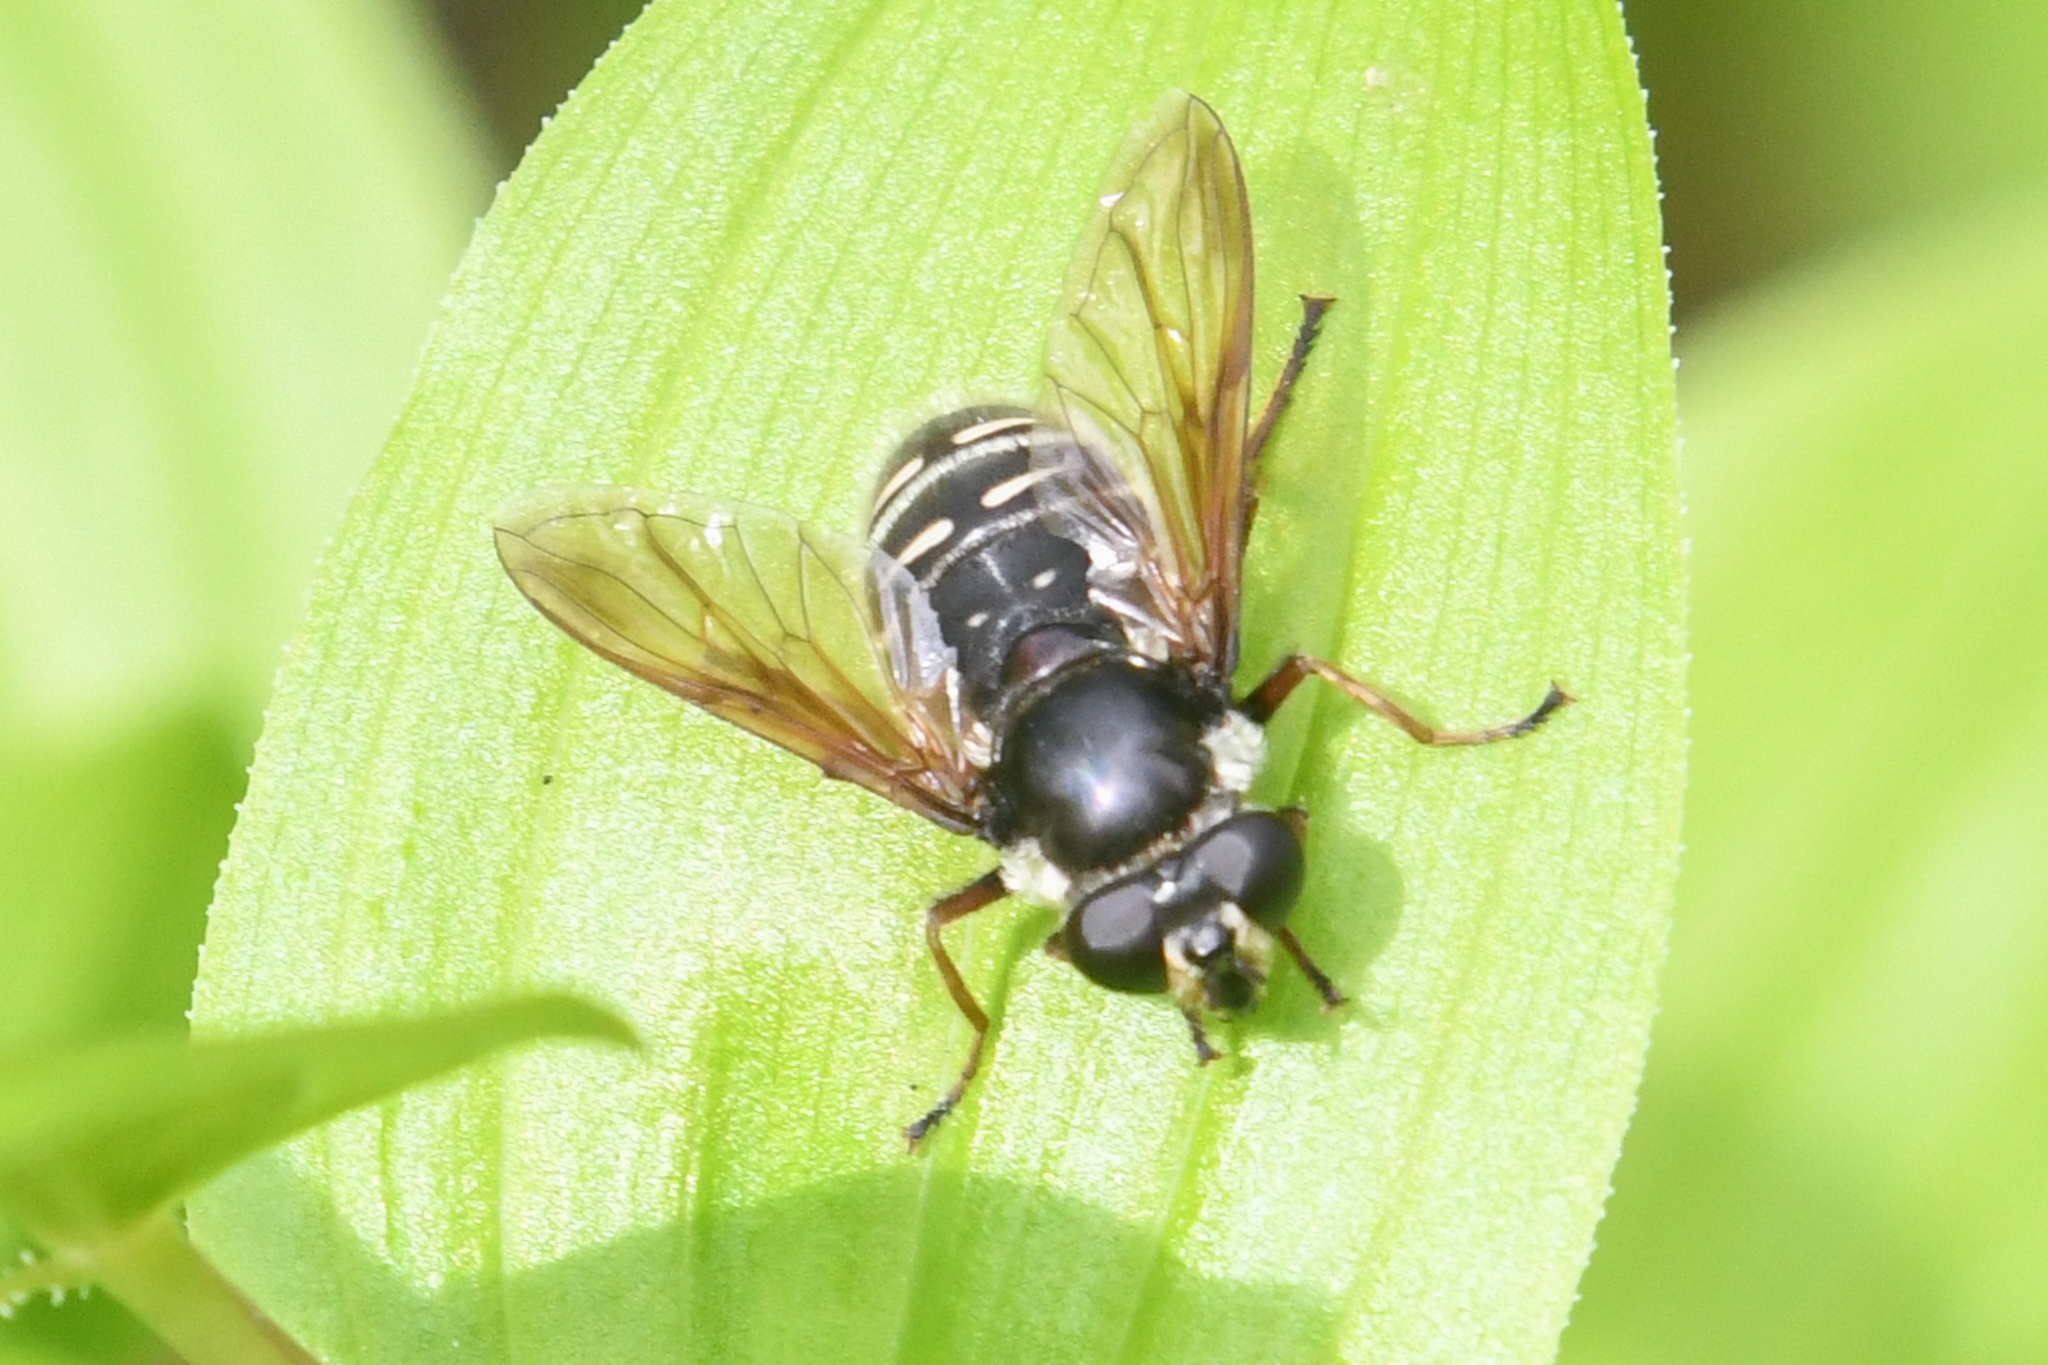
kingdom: Animalia
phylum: Arthropoda
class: Insecta
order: Diptera
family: Syrphidae
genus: Sericomyia
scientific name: Sericomyia militaris
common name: Narrow-banded pond fly
